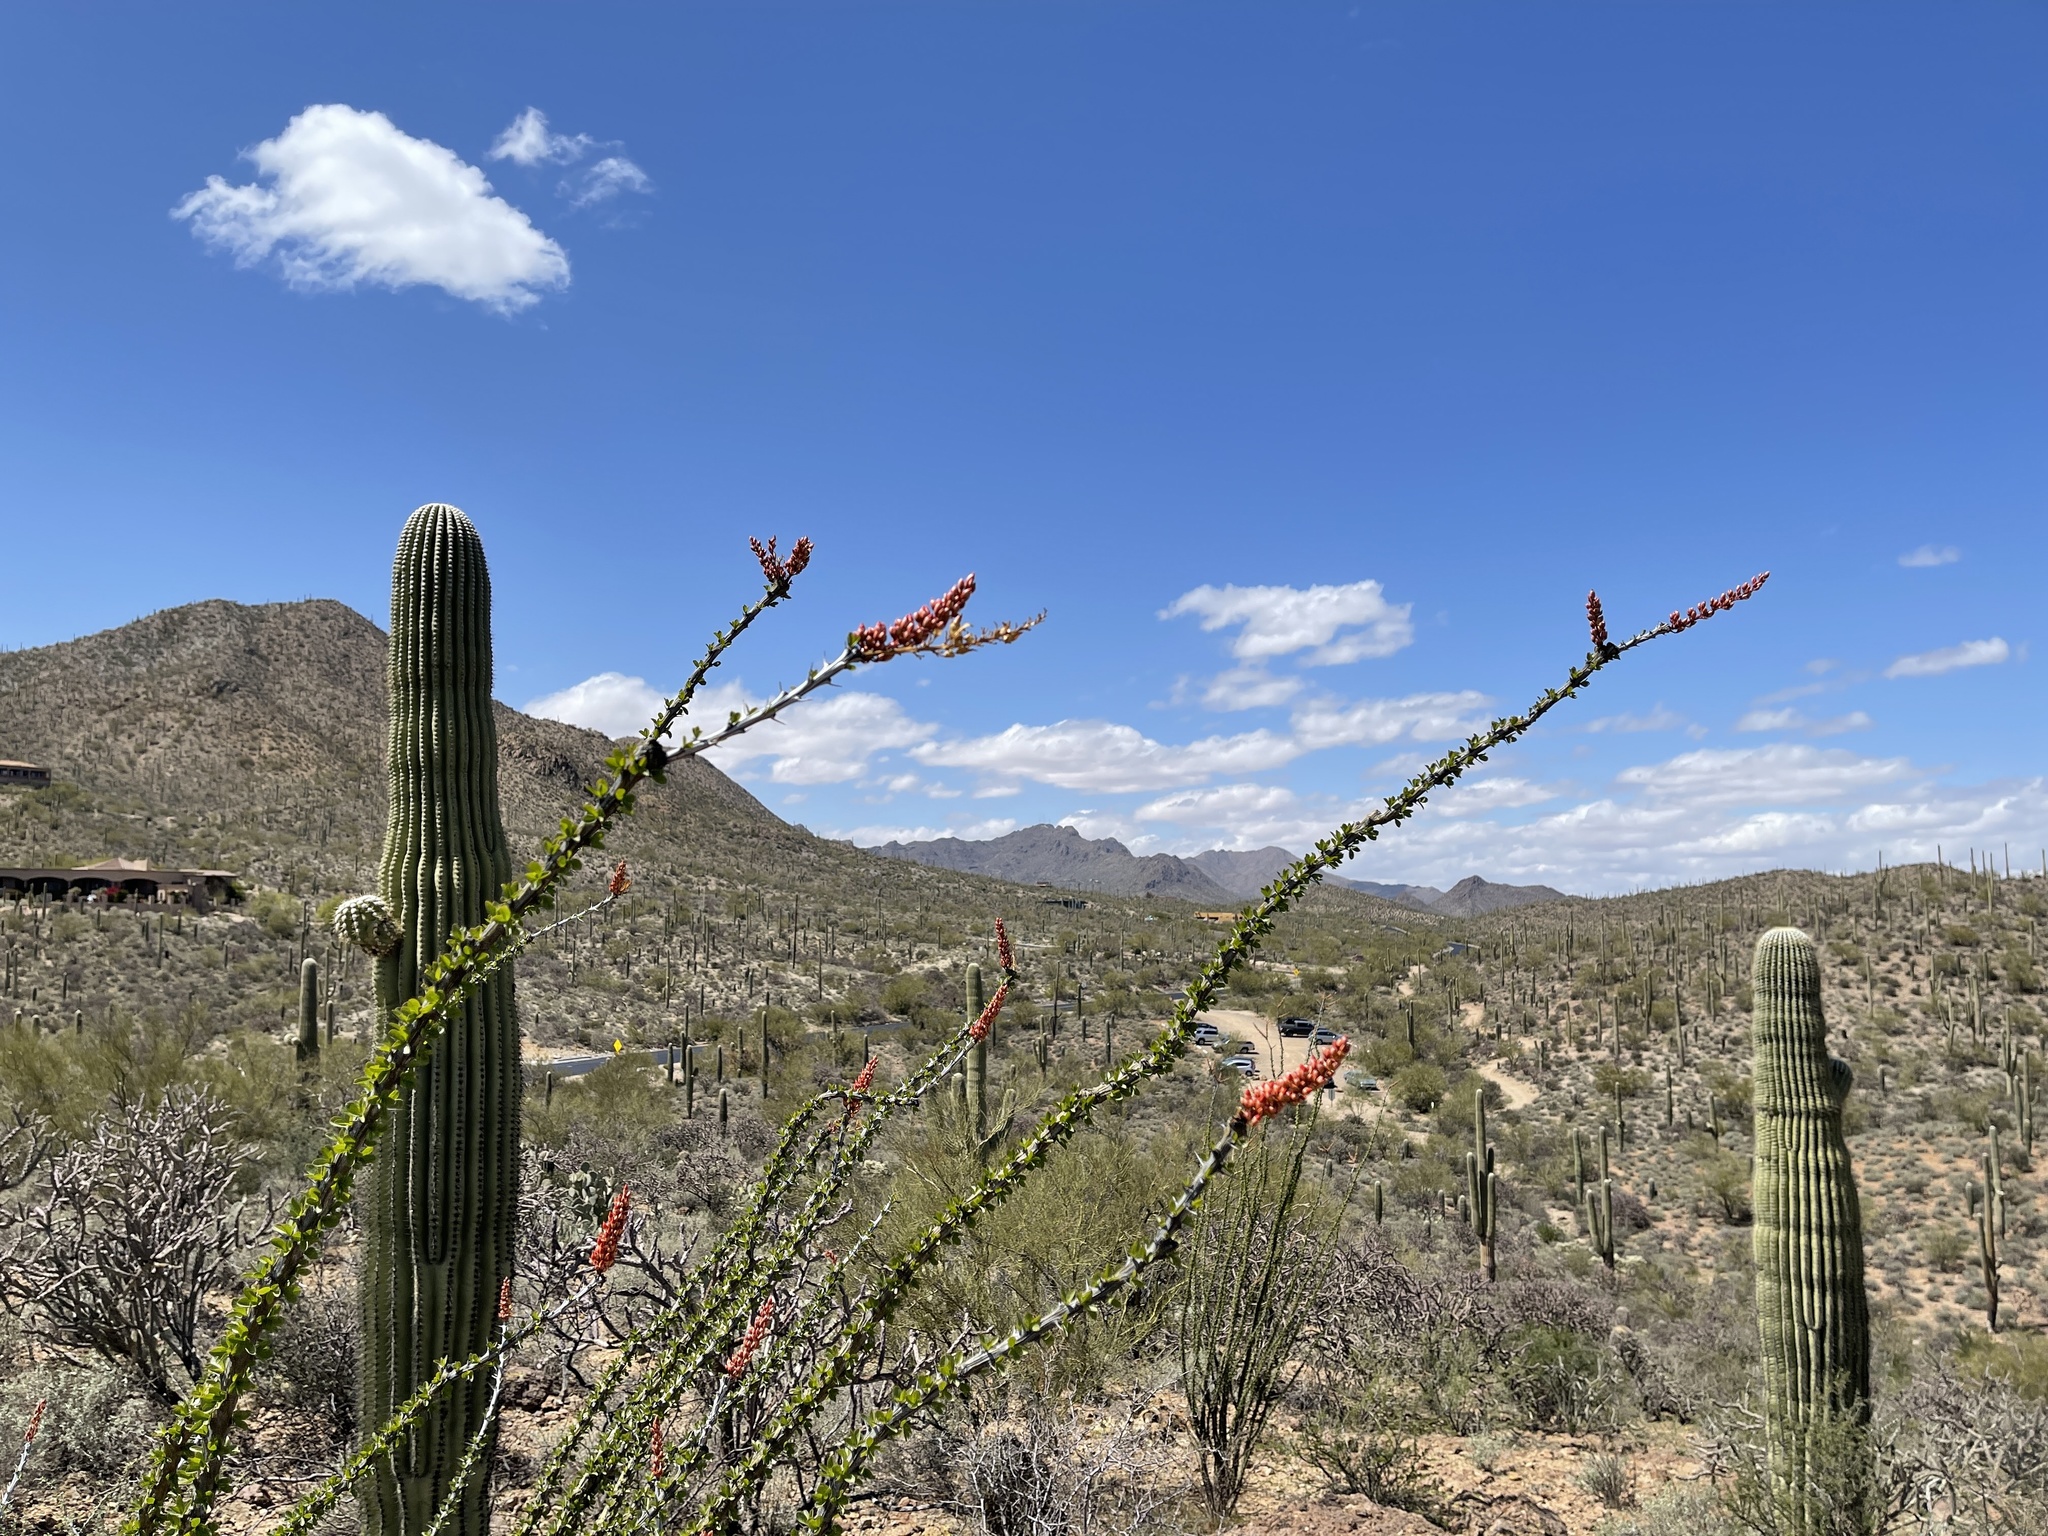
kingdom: Plantae
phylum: Tracheophyta
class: Magnoliopsida
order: Ericales
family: Fouquieriaceae
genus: Fouquieria
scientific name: Fouquieria splendens
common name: Vine-cactus
